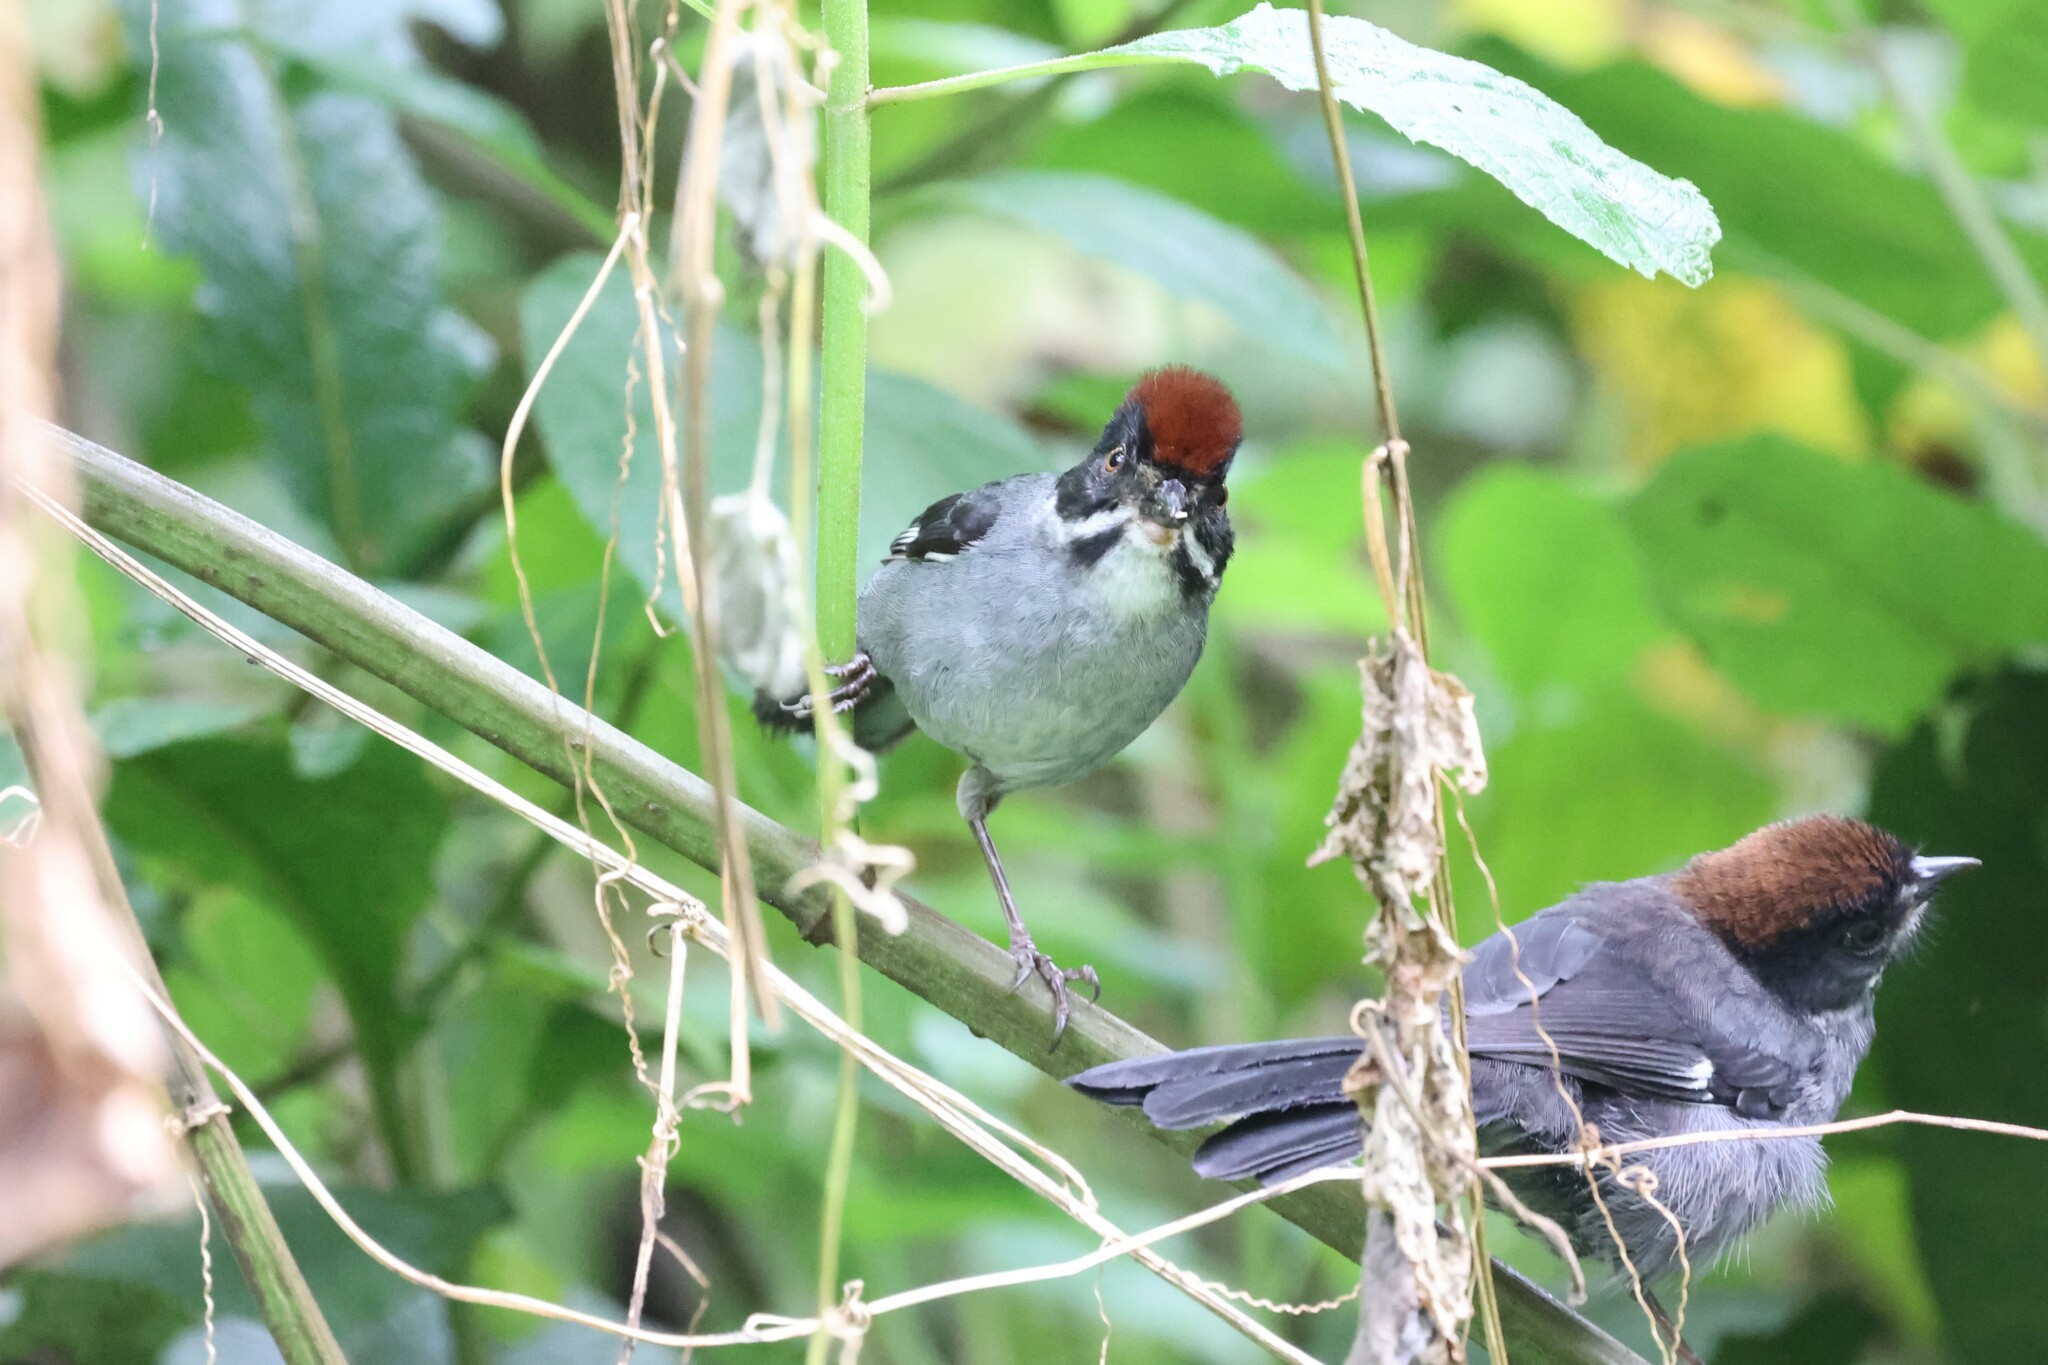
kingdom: Animalia
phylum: Chordata
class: Aves
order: Passeriformes
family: Passerellidae
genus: Atlapetes
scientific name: Atlapetes schistaceus
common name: Slaty brushfinch
